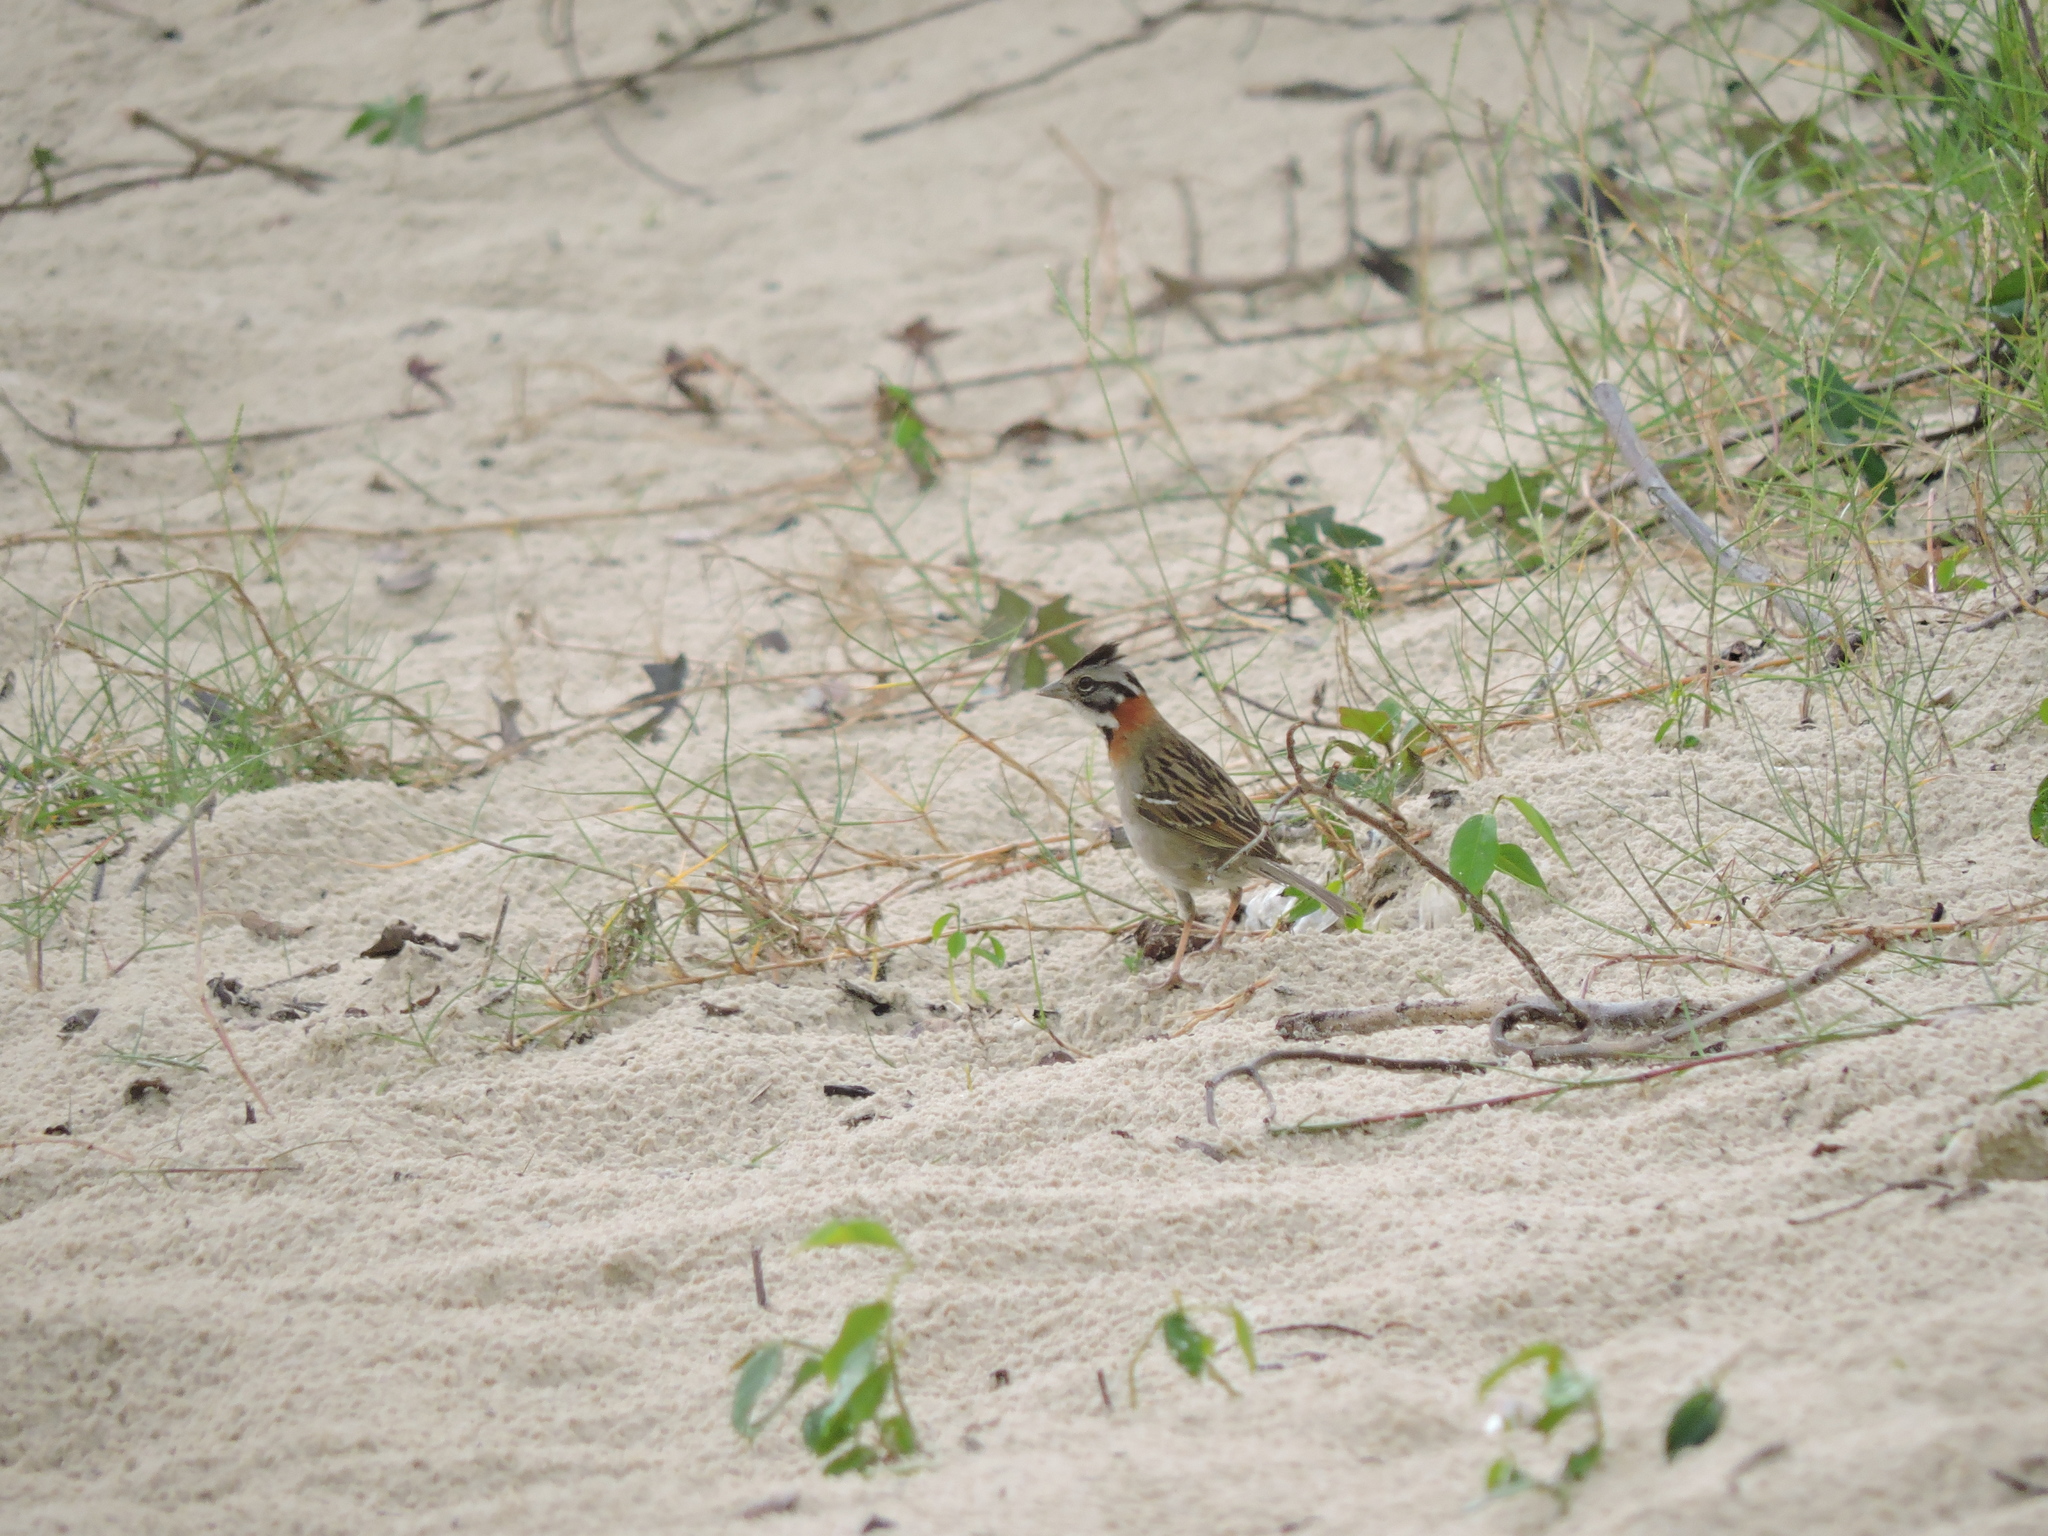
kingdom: Animalia
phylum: Chordata
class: Aves
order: Passeriformes
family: Passerellidae
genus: Zonotrichia
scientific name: Zonotrichia capensis
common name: Rufous-collared sparrow
